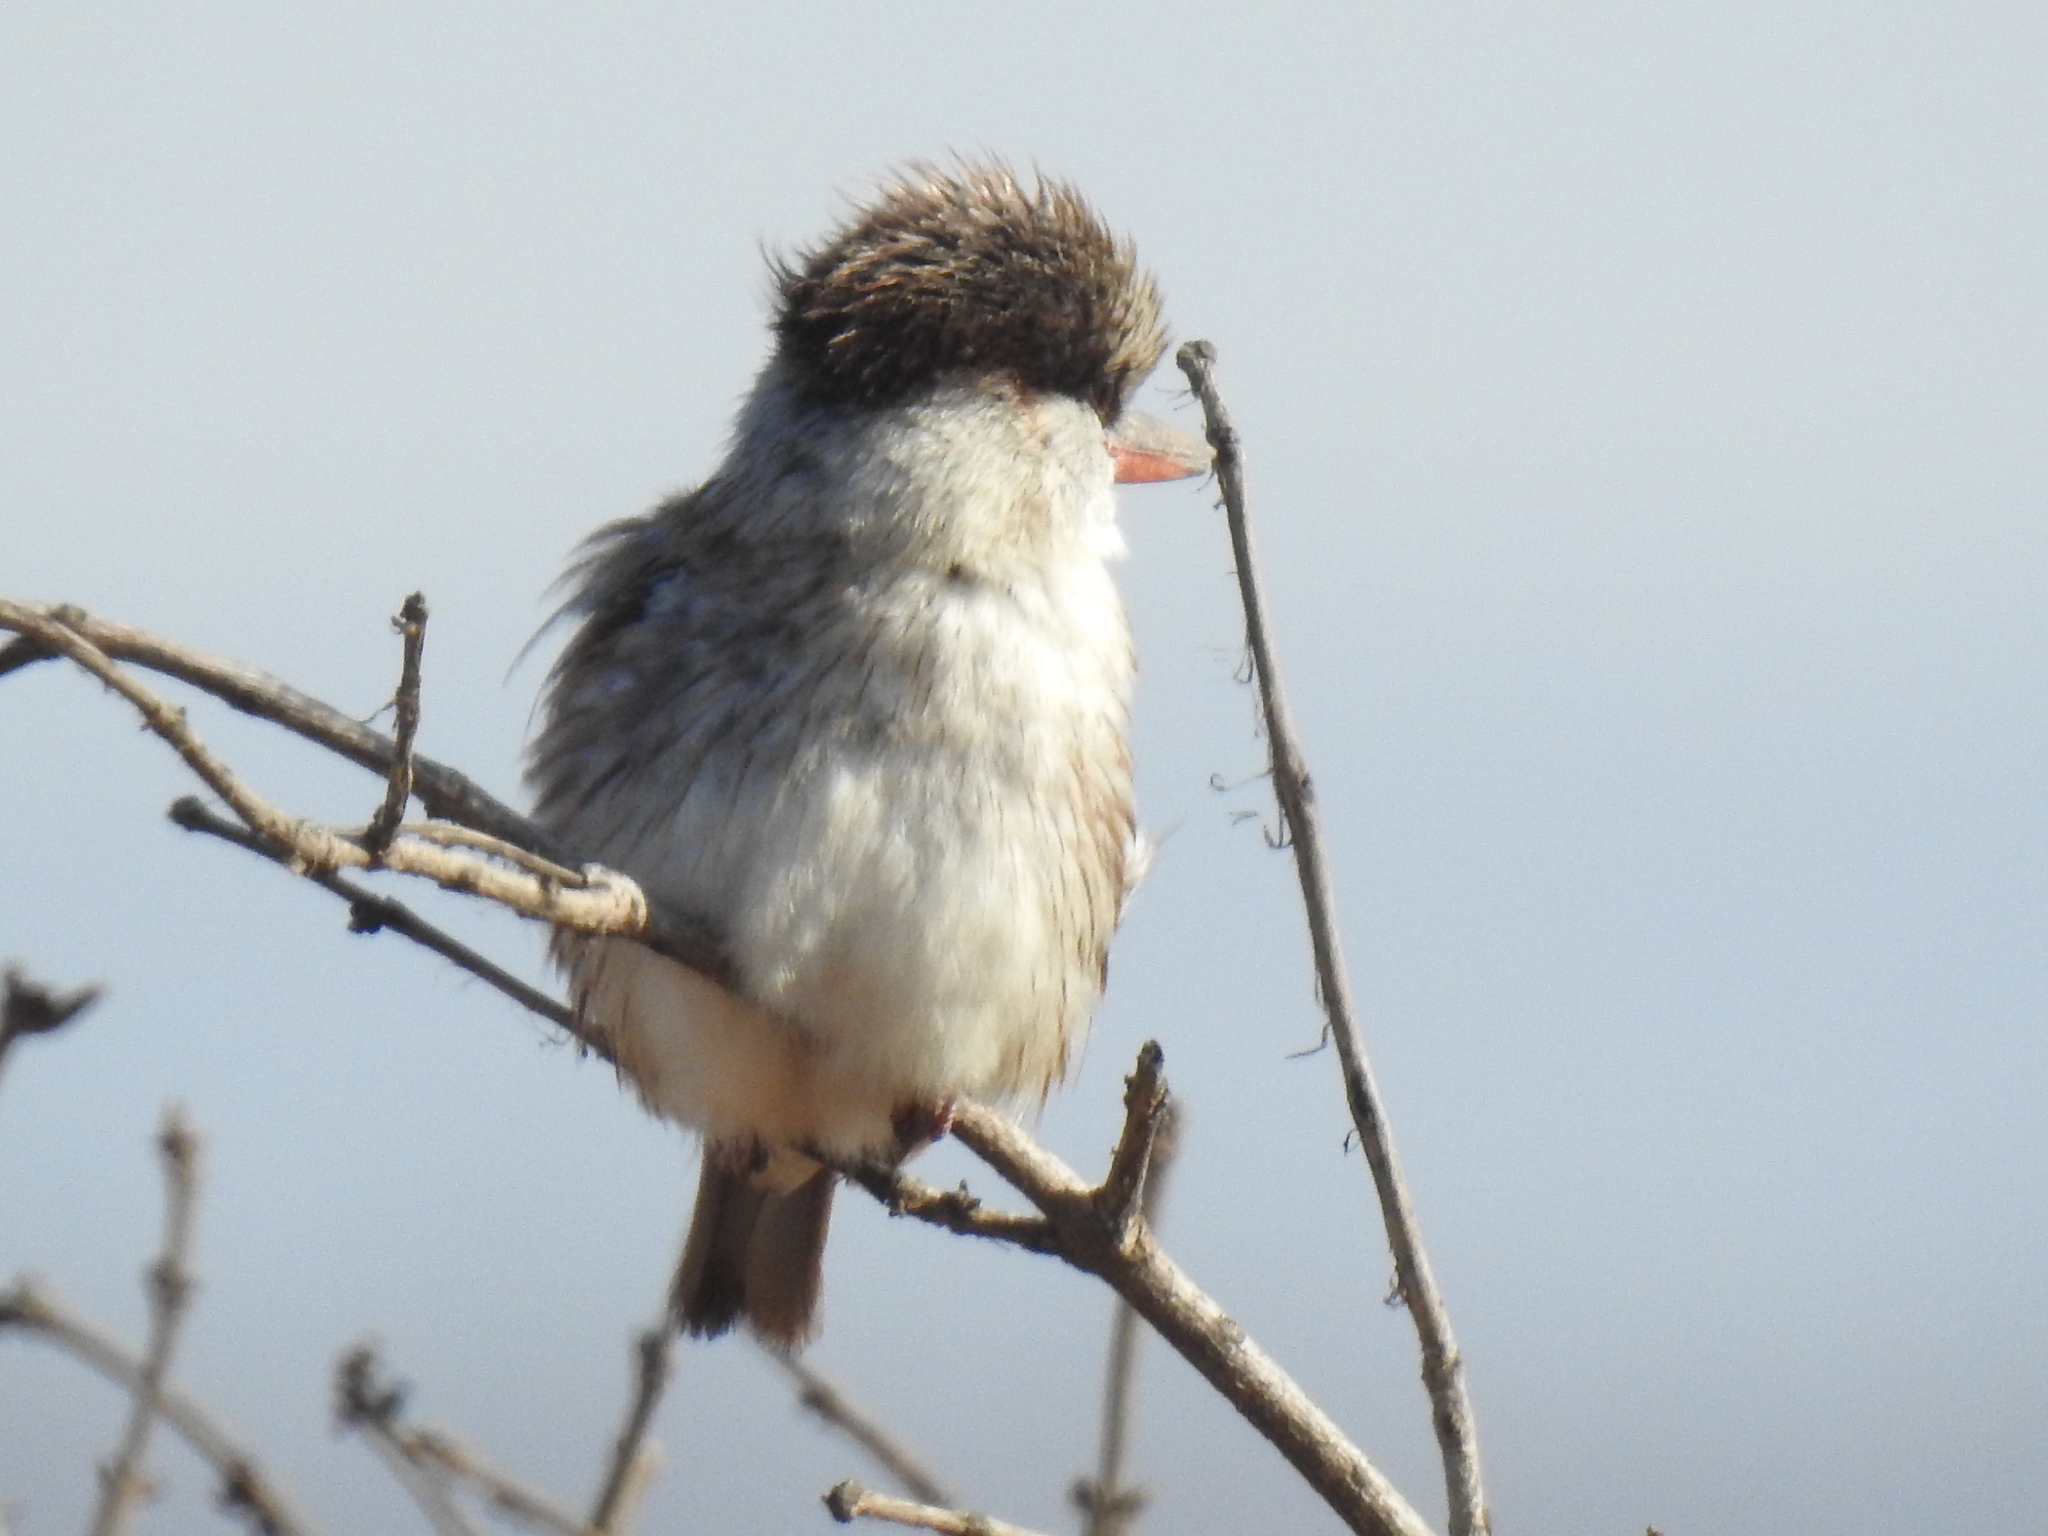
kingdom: Animalia
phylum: Chordata
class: Aves
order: Coraciiformes
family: Alcedinidae
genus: Halcyon
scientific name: Halcyon chelicuti
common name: Striped kingfisher
